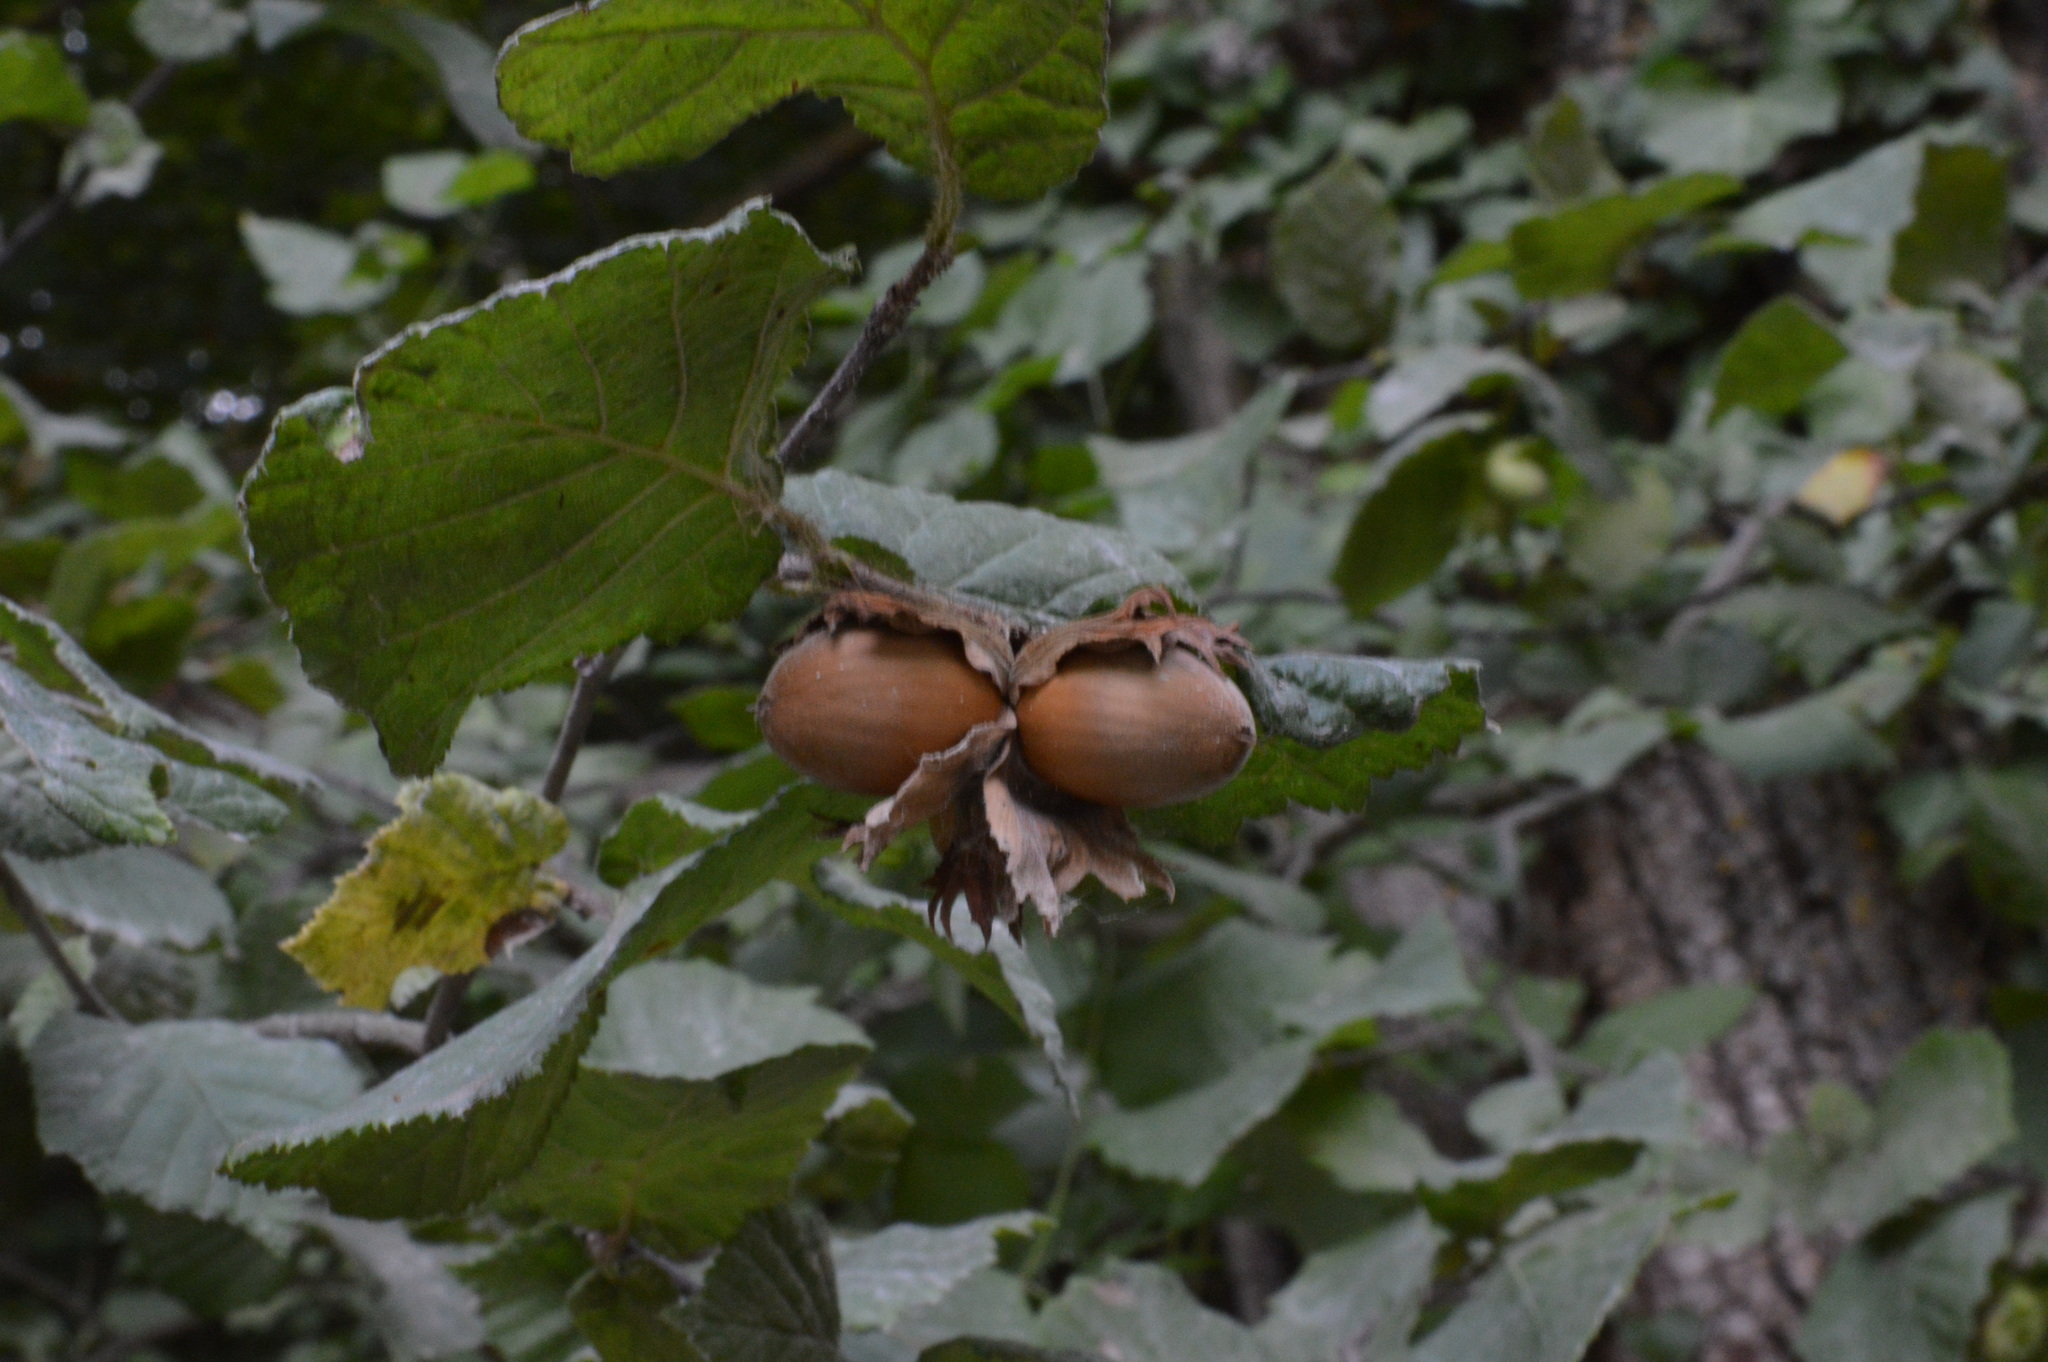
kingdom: Plantae
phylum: Tracheophyta
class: Magnoliopsida
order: Fagales
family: Betulaceae
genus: Corylus
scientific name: Corylus avellana
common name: European hazel
